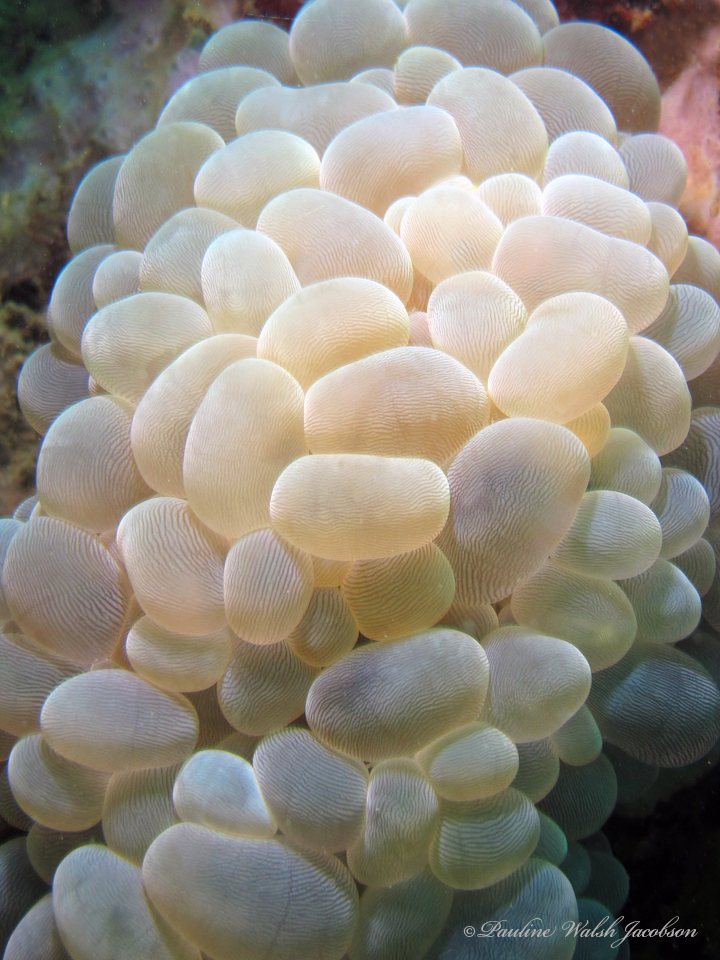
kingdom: Animalia
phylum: Cnidaria
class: Anthozoa
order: Scleractinia
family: Plerogyridae
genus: Plerogyra
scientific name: Plerogyra sinuosa
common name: Bubble coral
